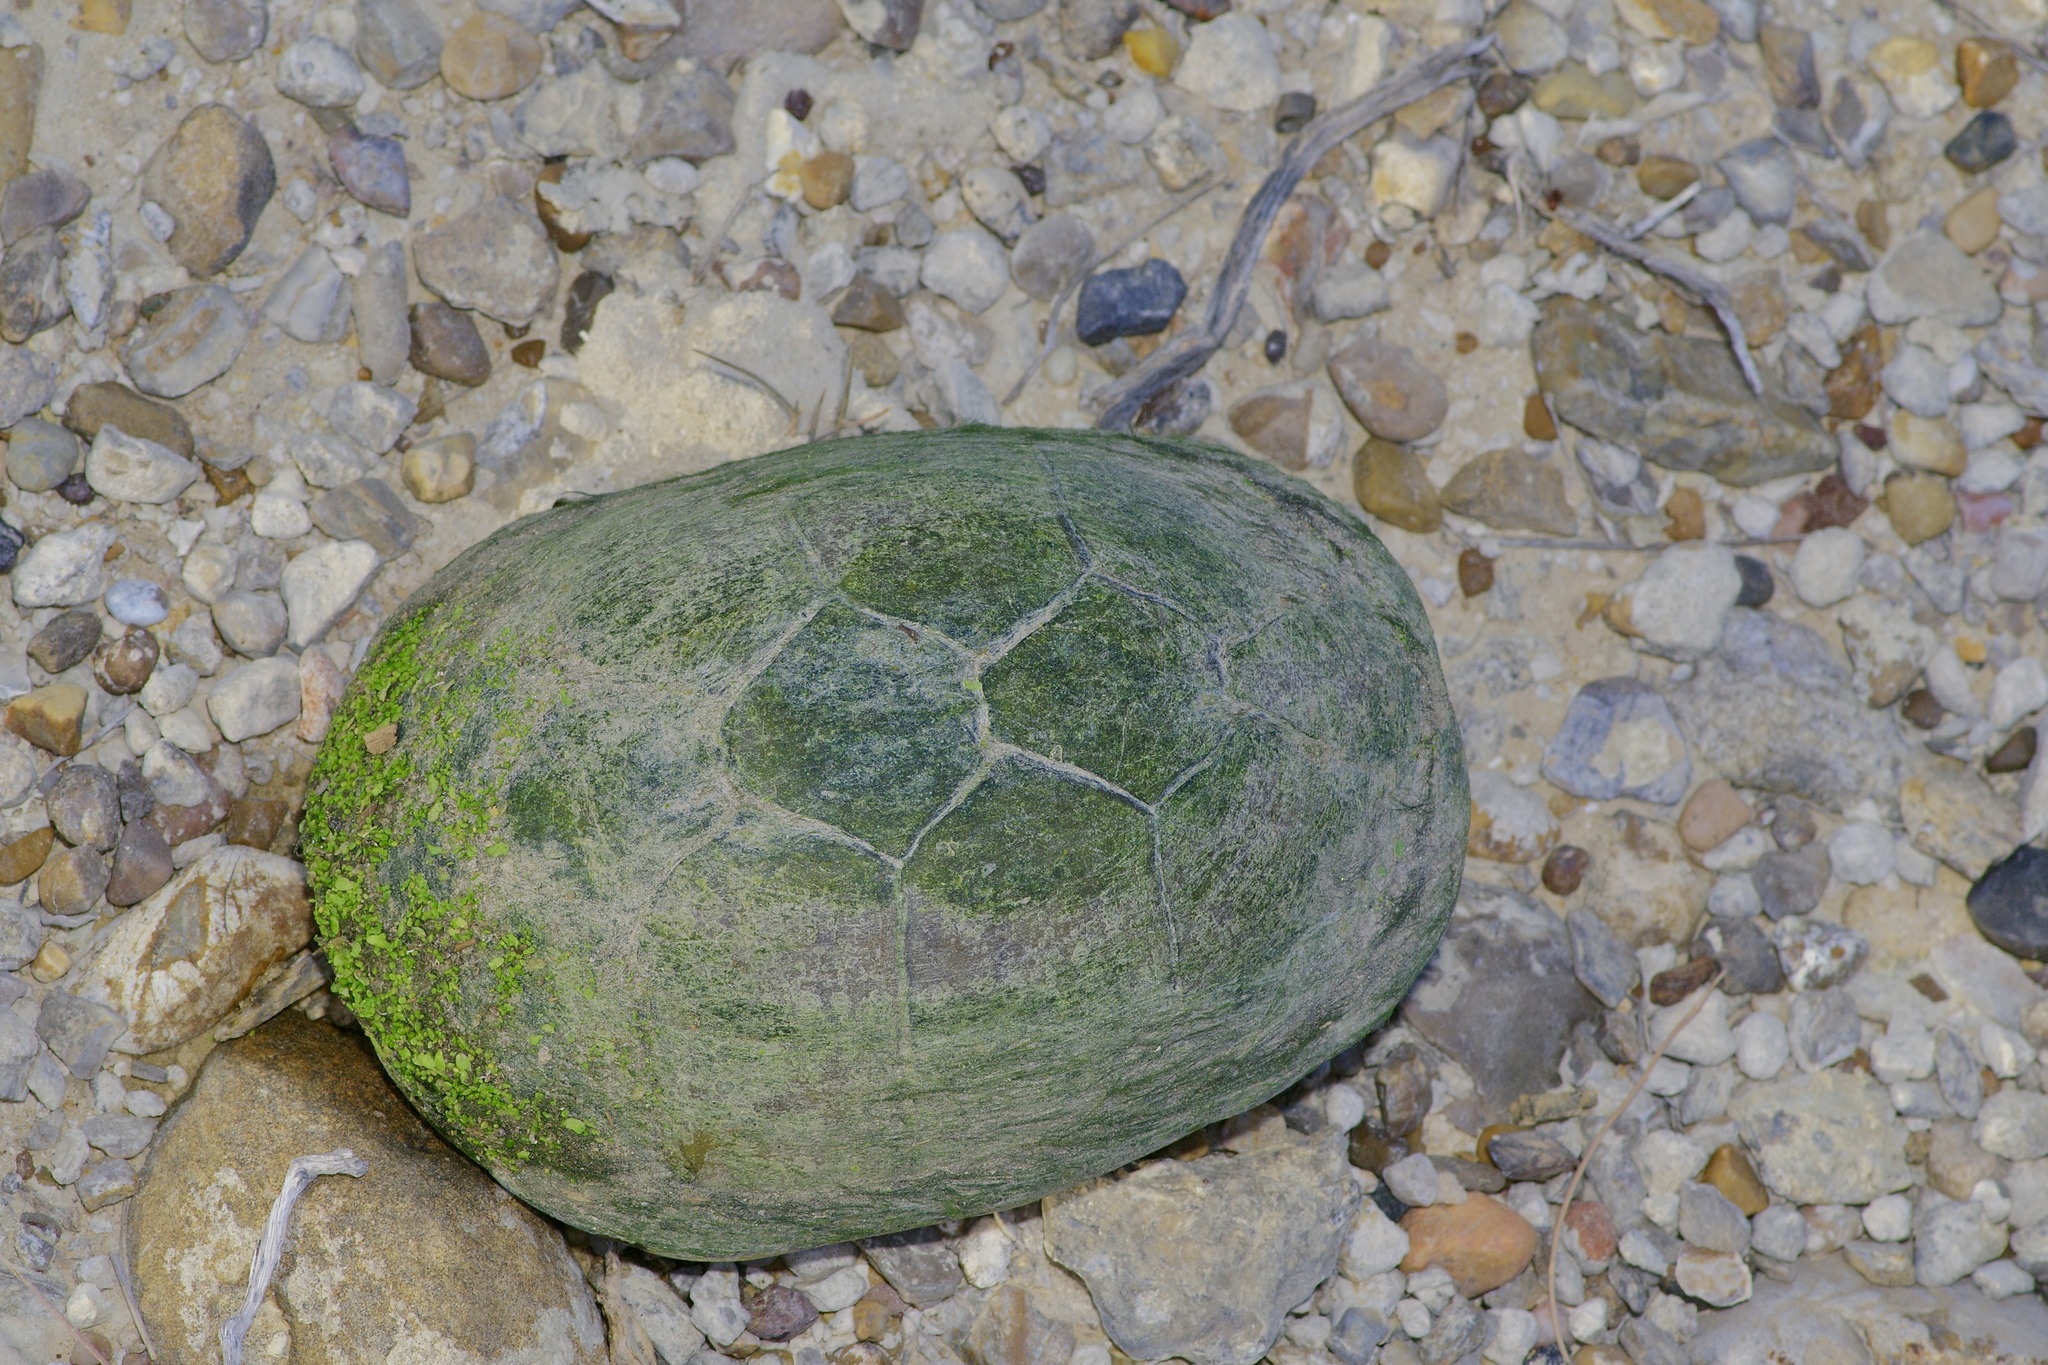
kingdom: Animalia
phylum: Chordata
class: Testudines
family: Kinosternidae
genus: Kinosternon
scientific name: Kinosternon flavescens
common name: Yellow mud turtle
